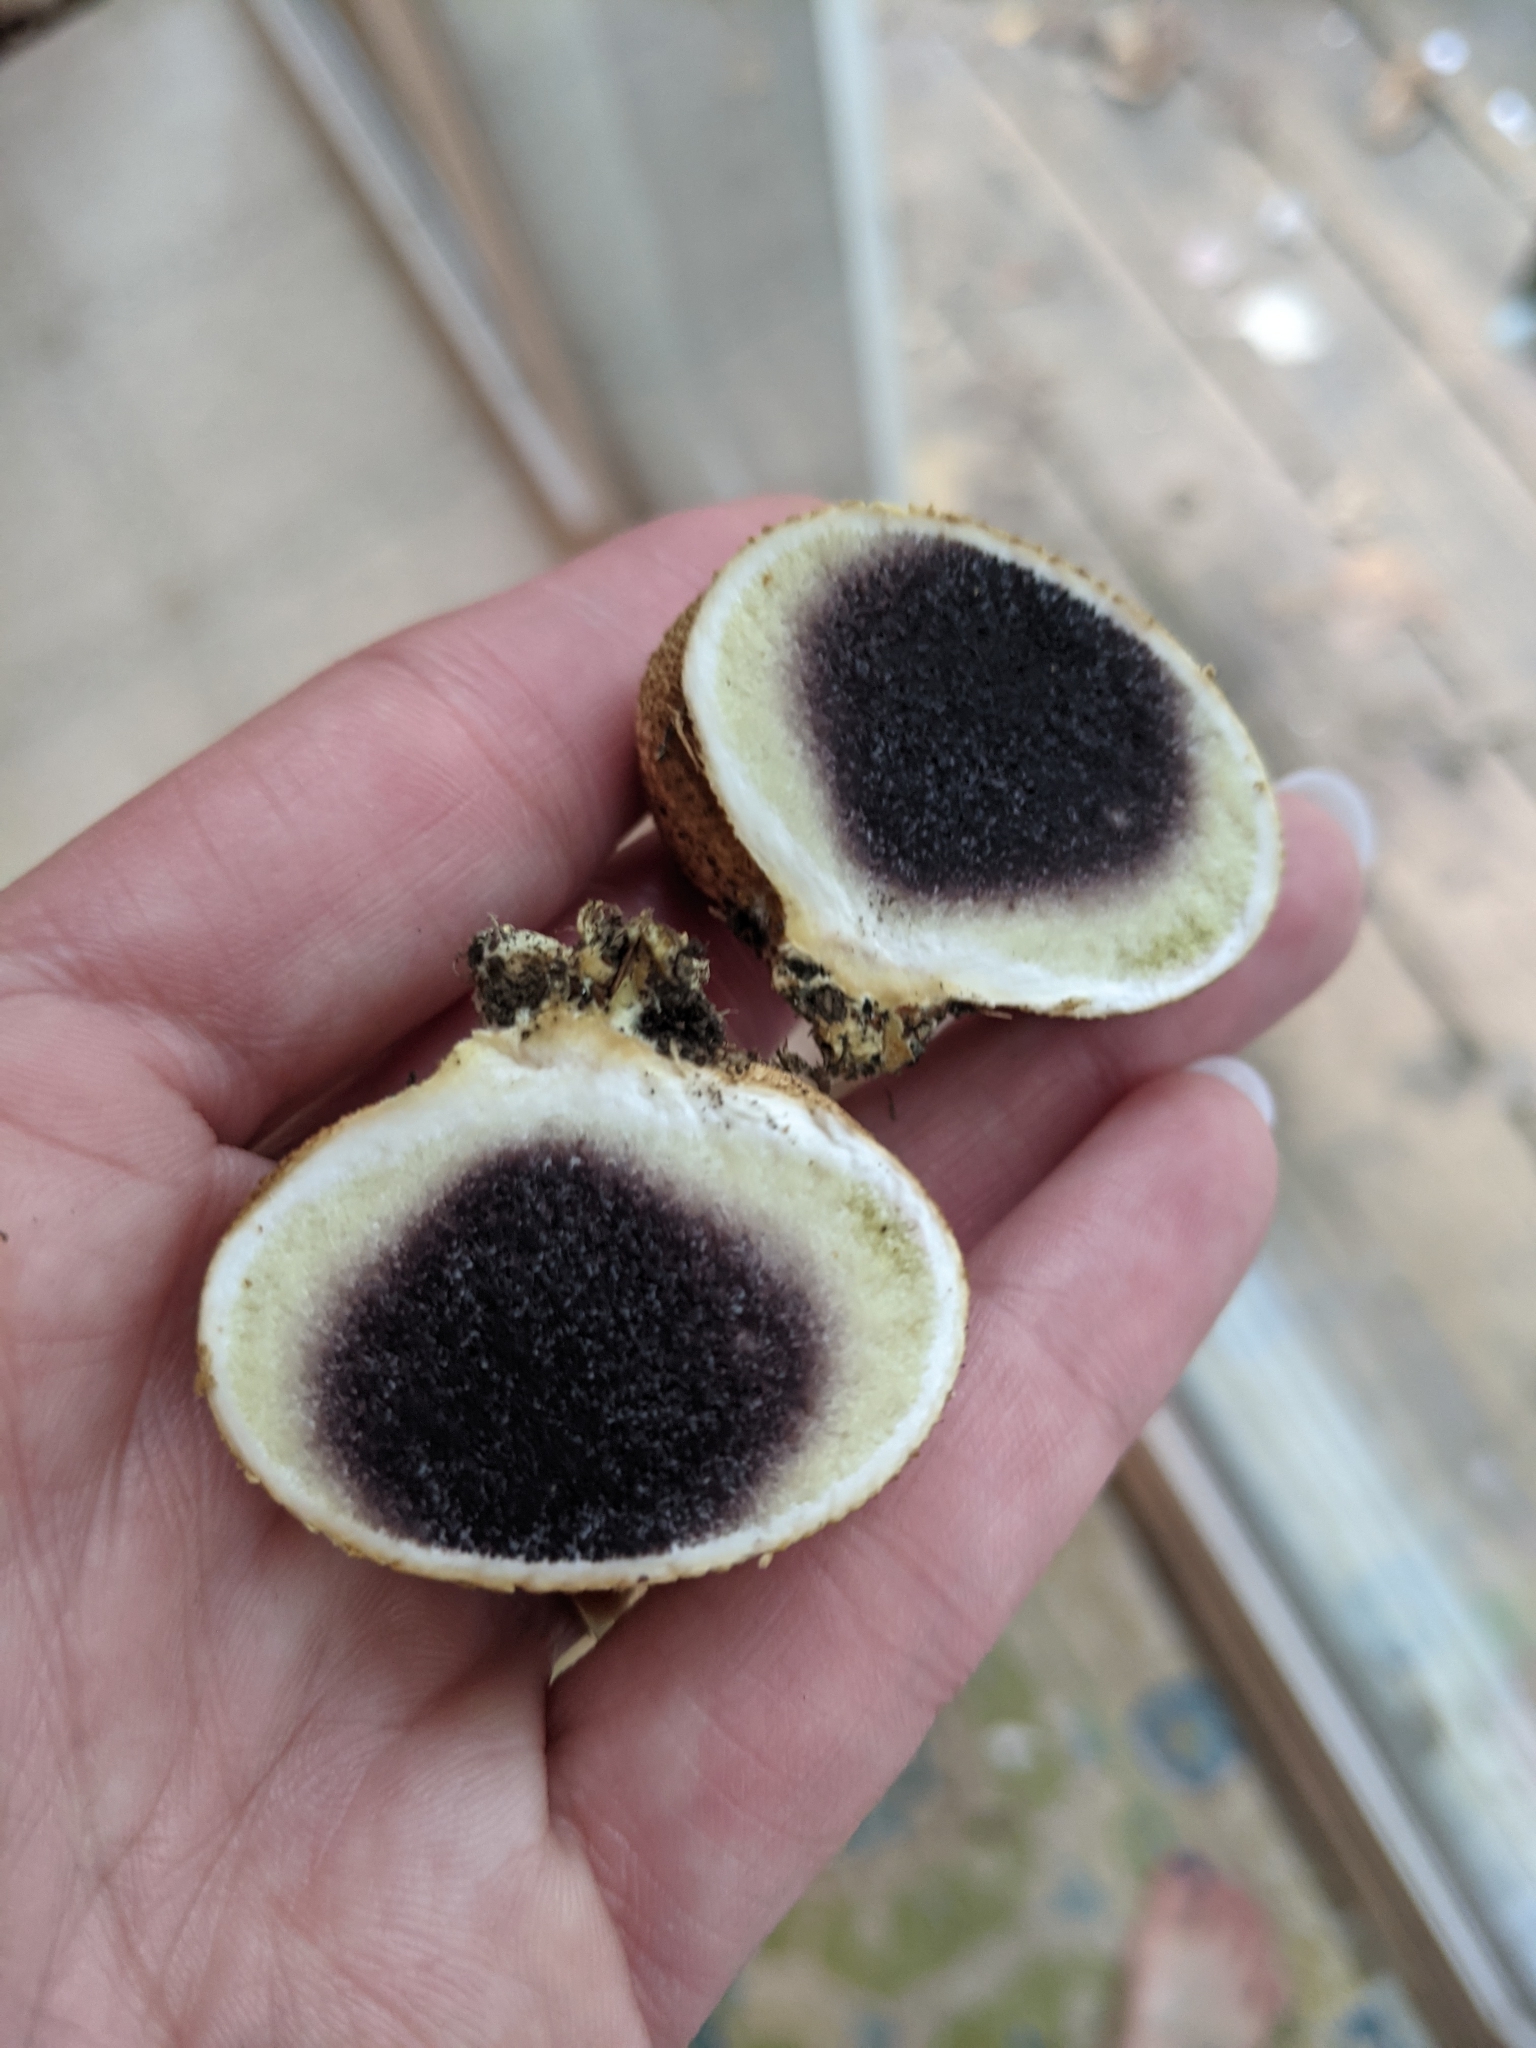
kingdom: Fungi
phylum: Basidiomycota
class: Agaricomycetes
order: Boletales
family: Sclerodermataceae
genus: Scleroderma
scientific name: Scleroderma citrinum
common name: Common earthball
